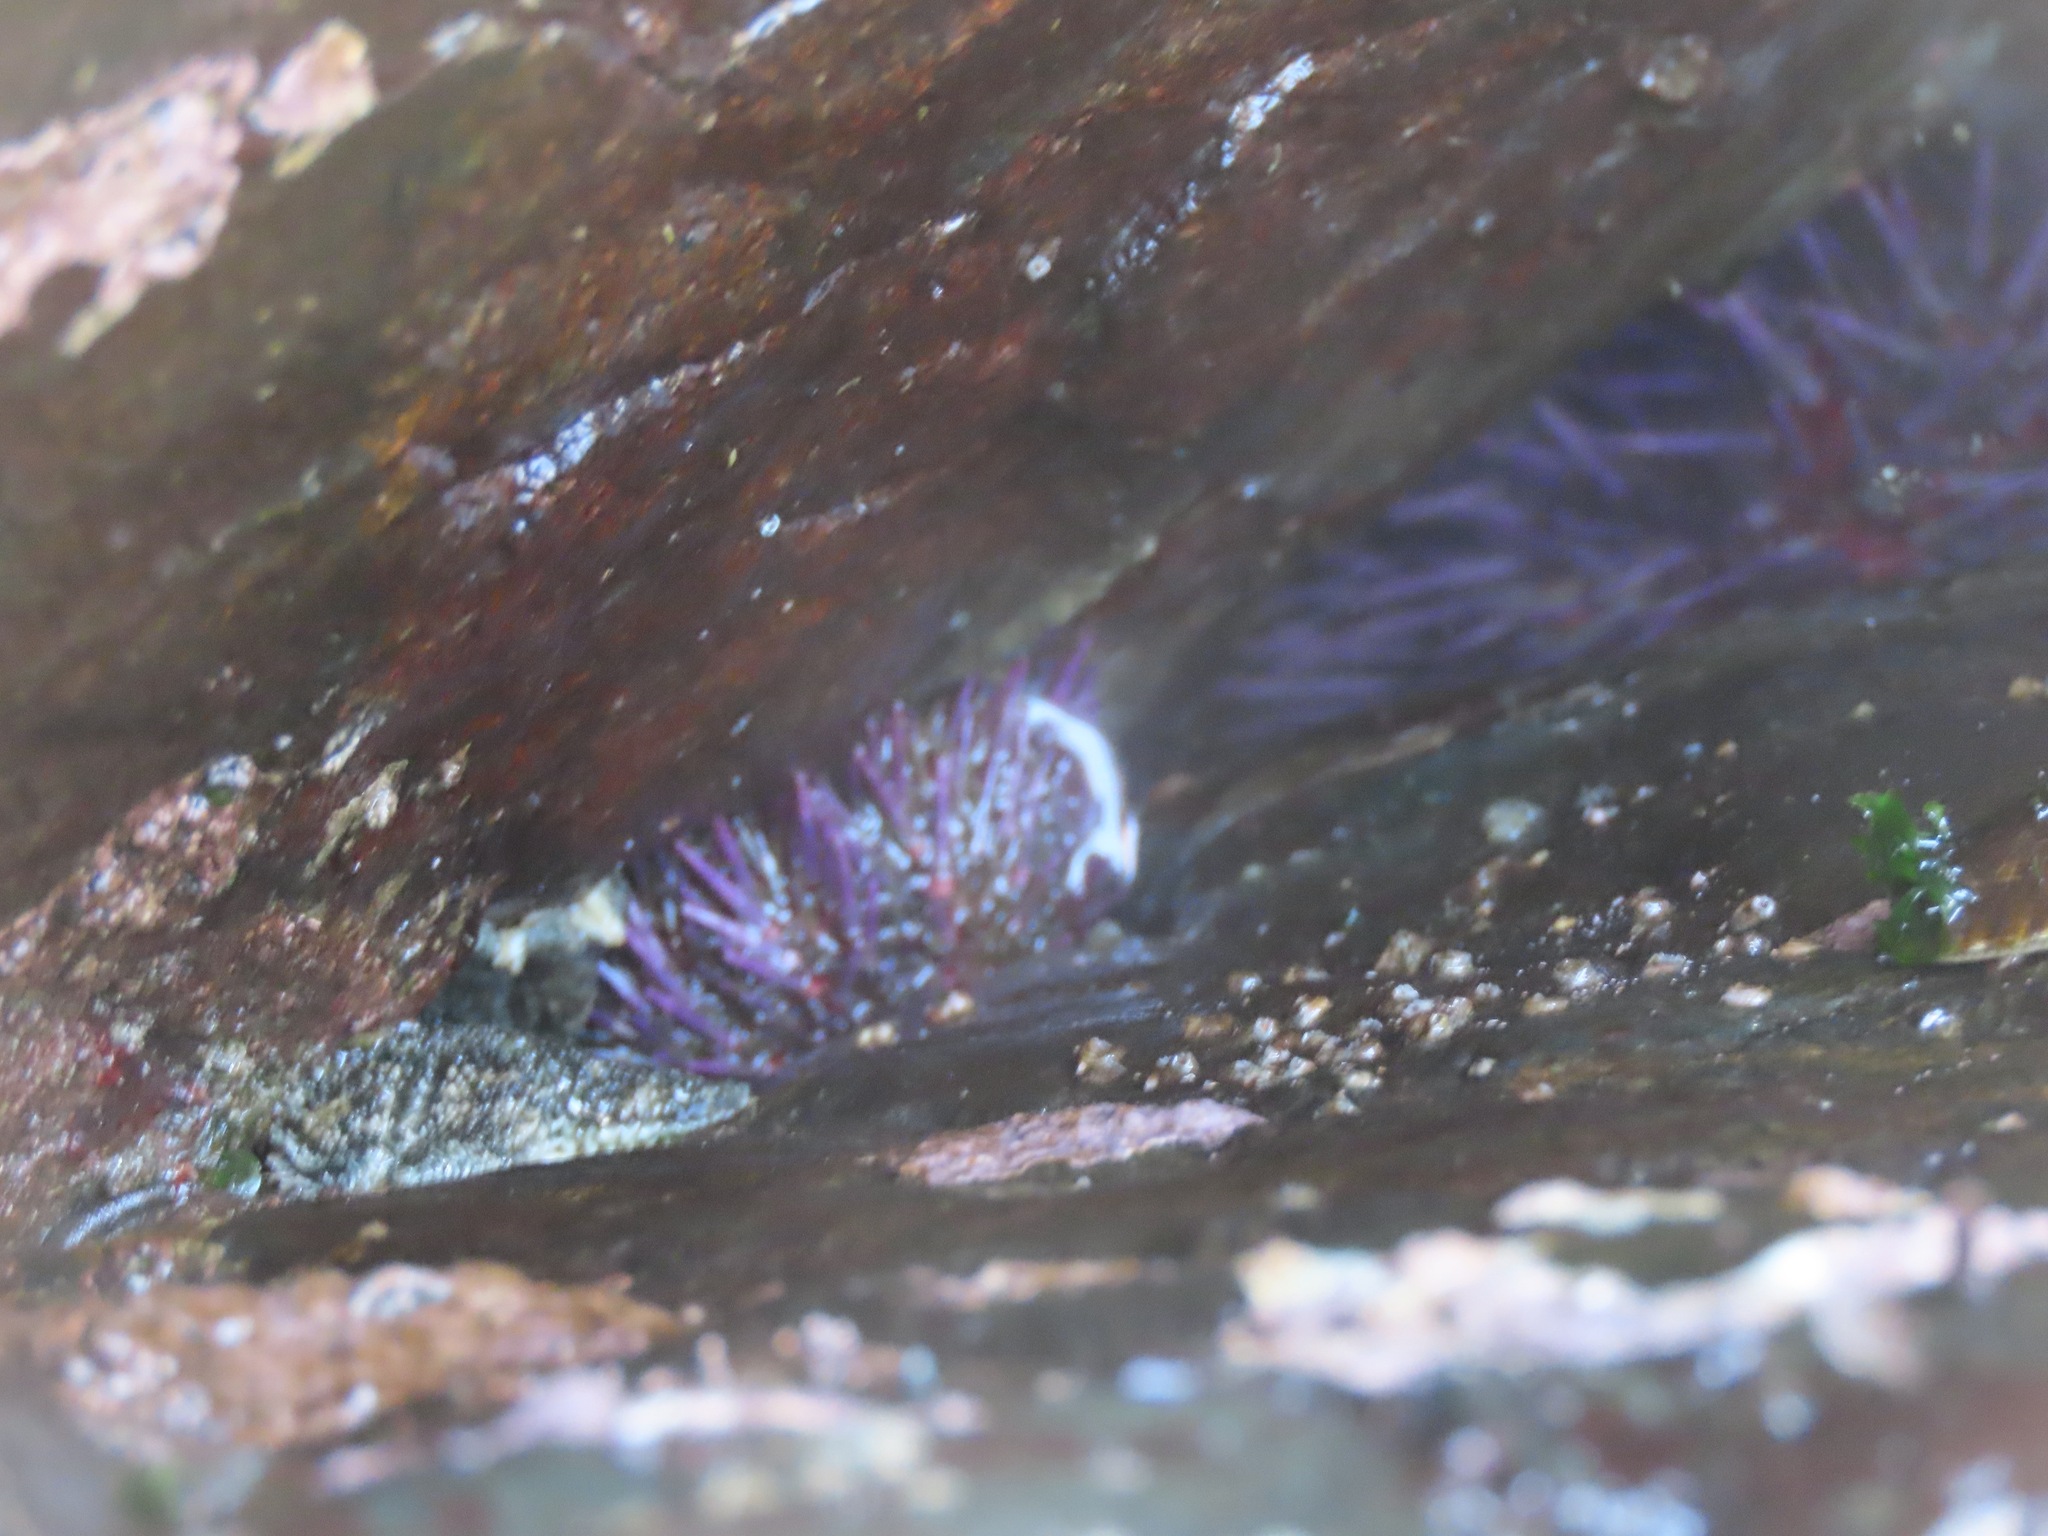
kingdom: Animalia
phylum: Echinodermata
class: Echinoidea
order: Camarodonta
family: Strongylocentrotidae
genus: Strongylocentrotus
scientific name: Strongylocentrotus purpuratus
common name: Purple sea urchin
